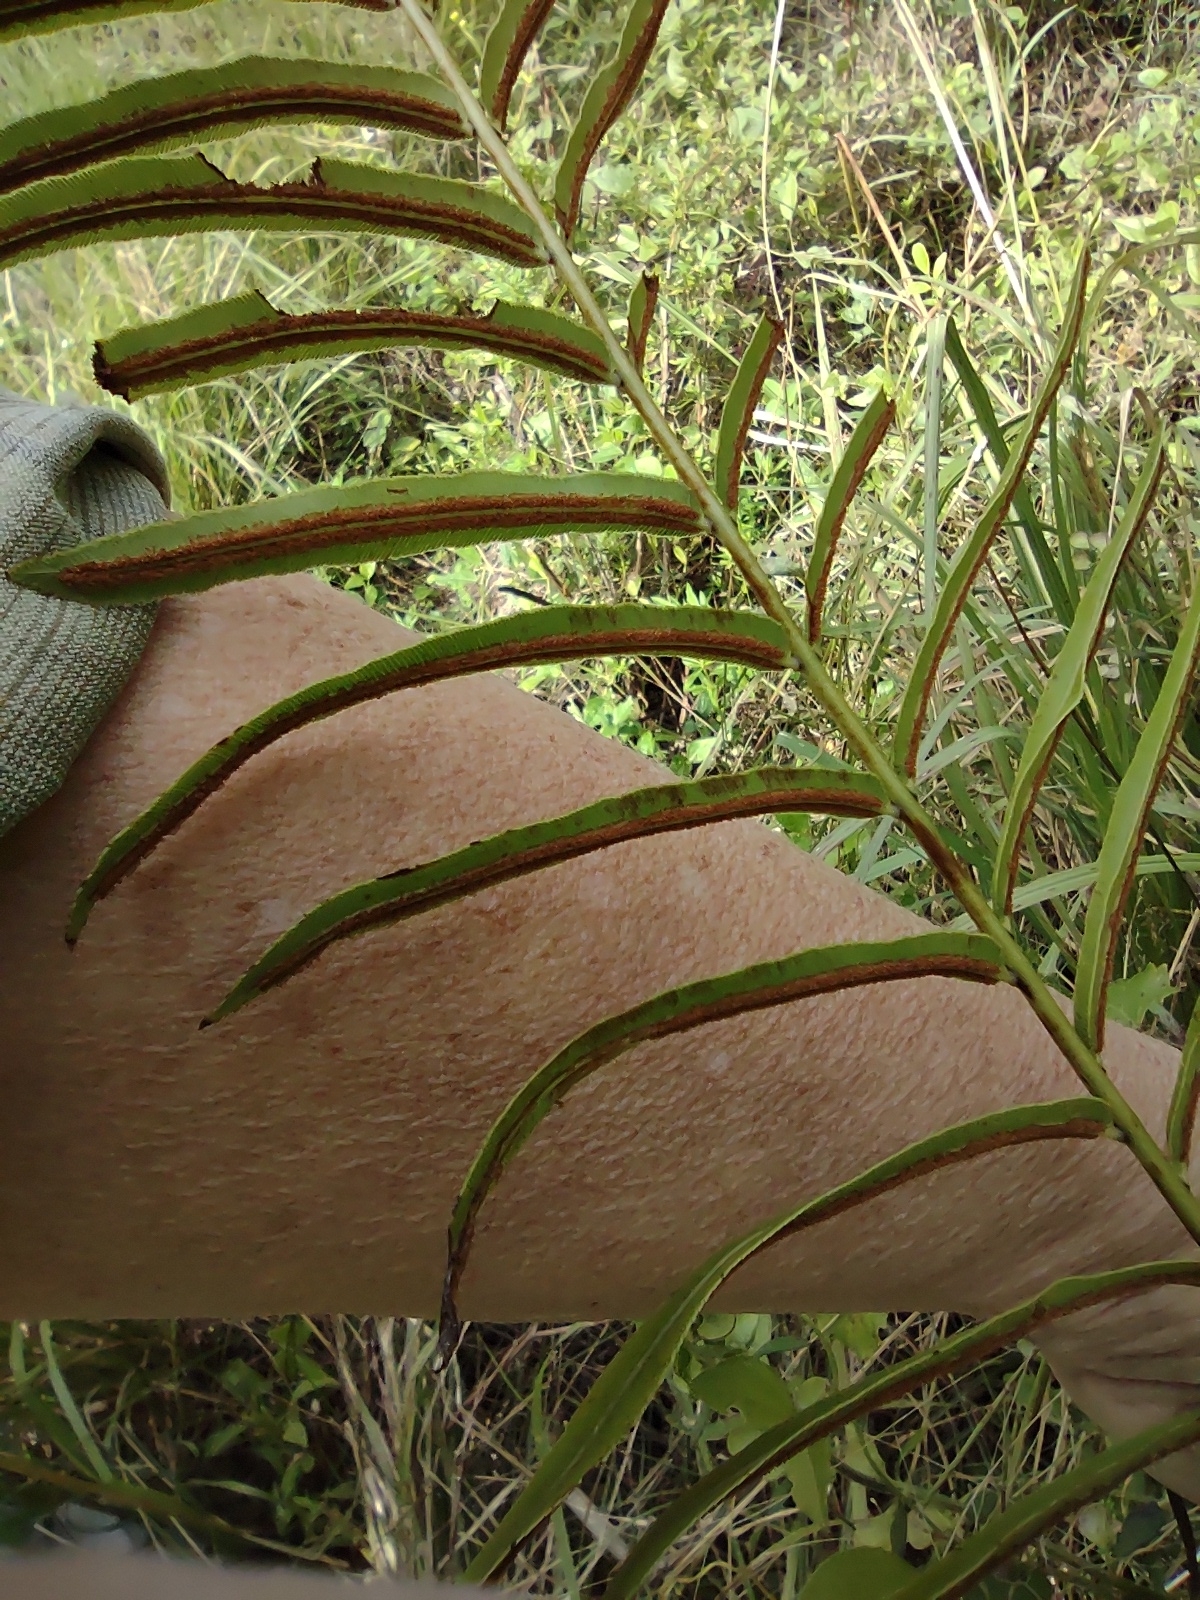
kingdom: Plantae
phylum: Tracheophyta
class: Polypodiopsida
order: Polypodiales
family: Blechnaceae
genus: Telmatoblechnum
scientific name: Telmatoblechnum serrulatum
